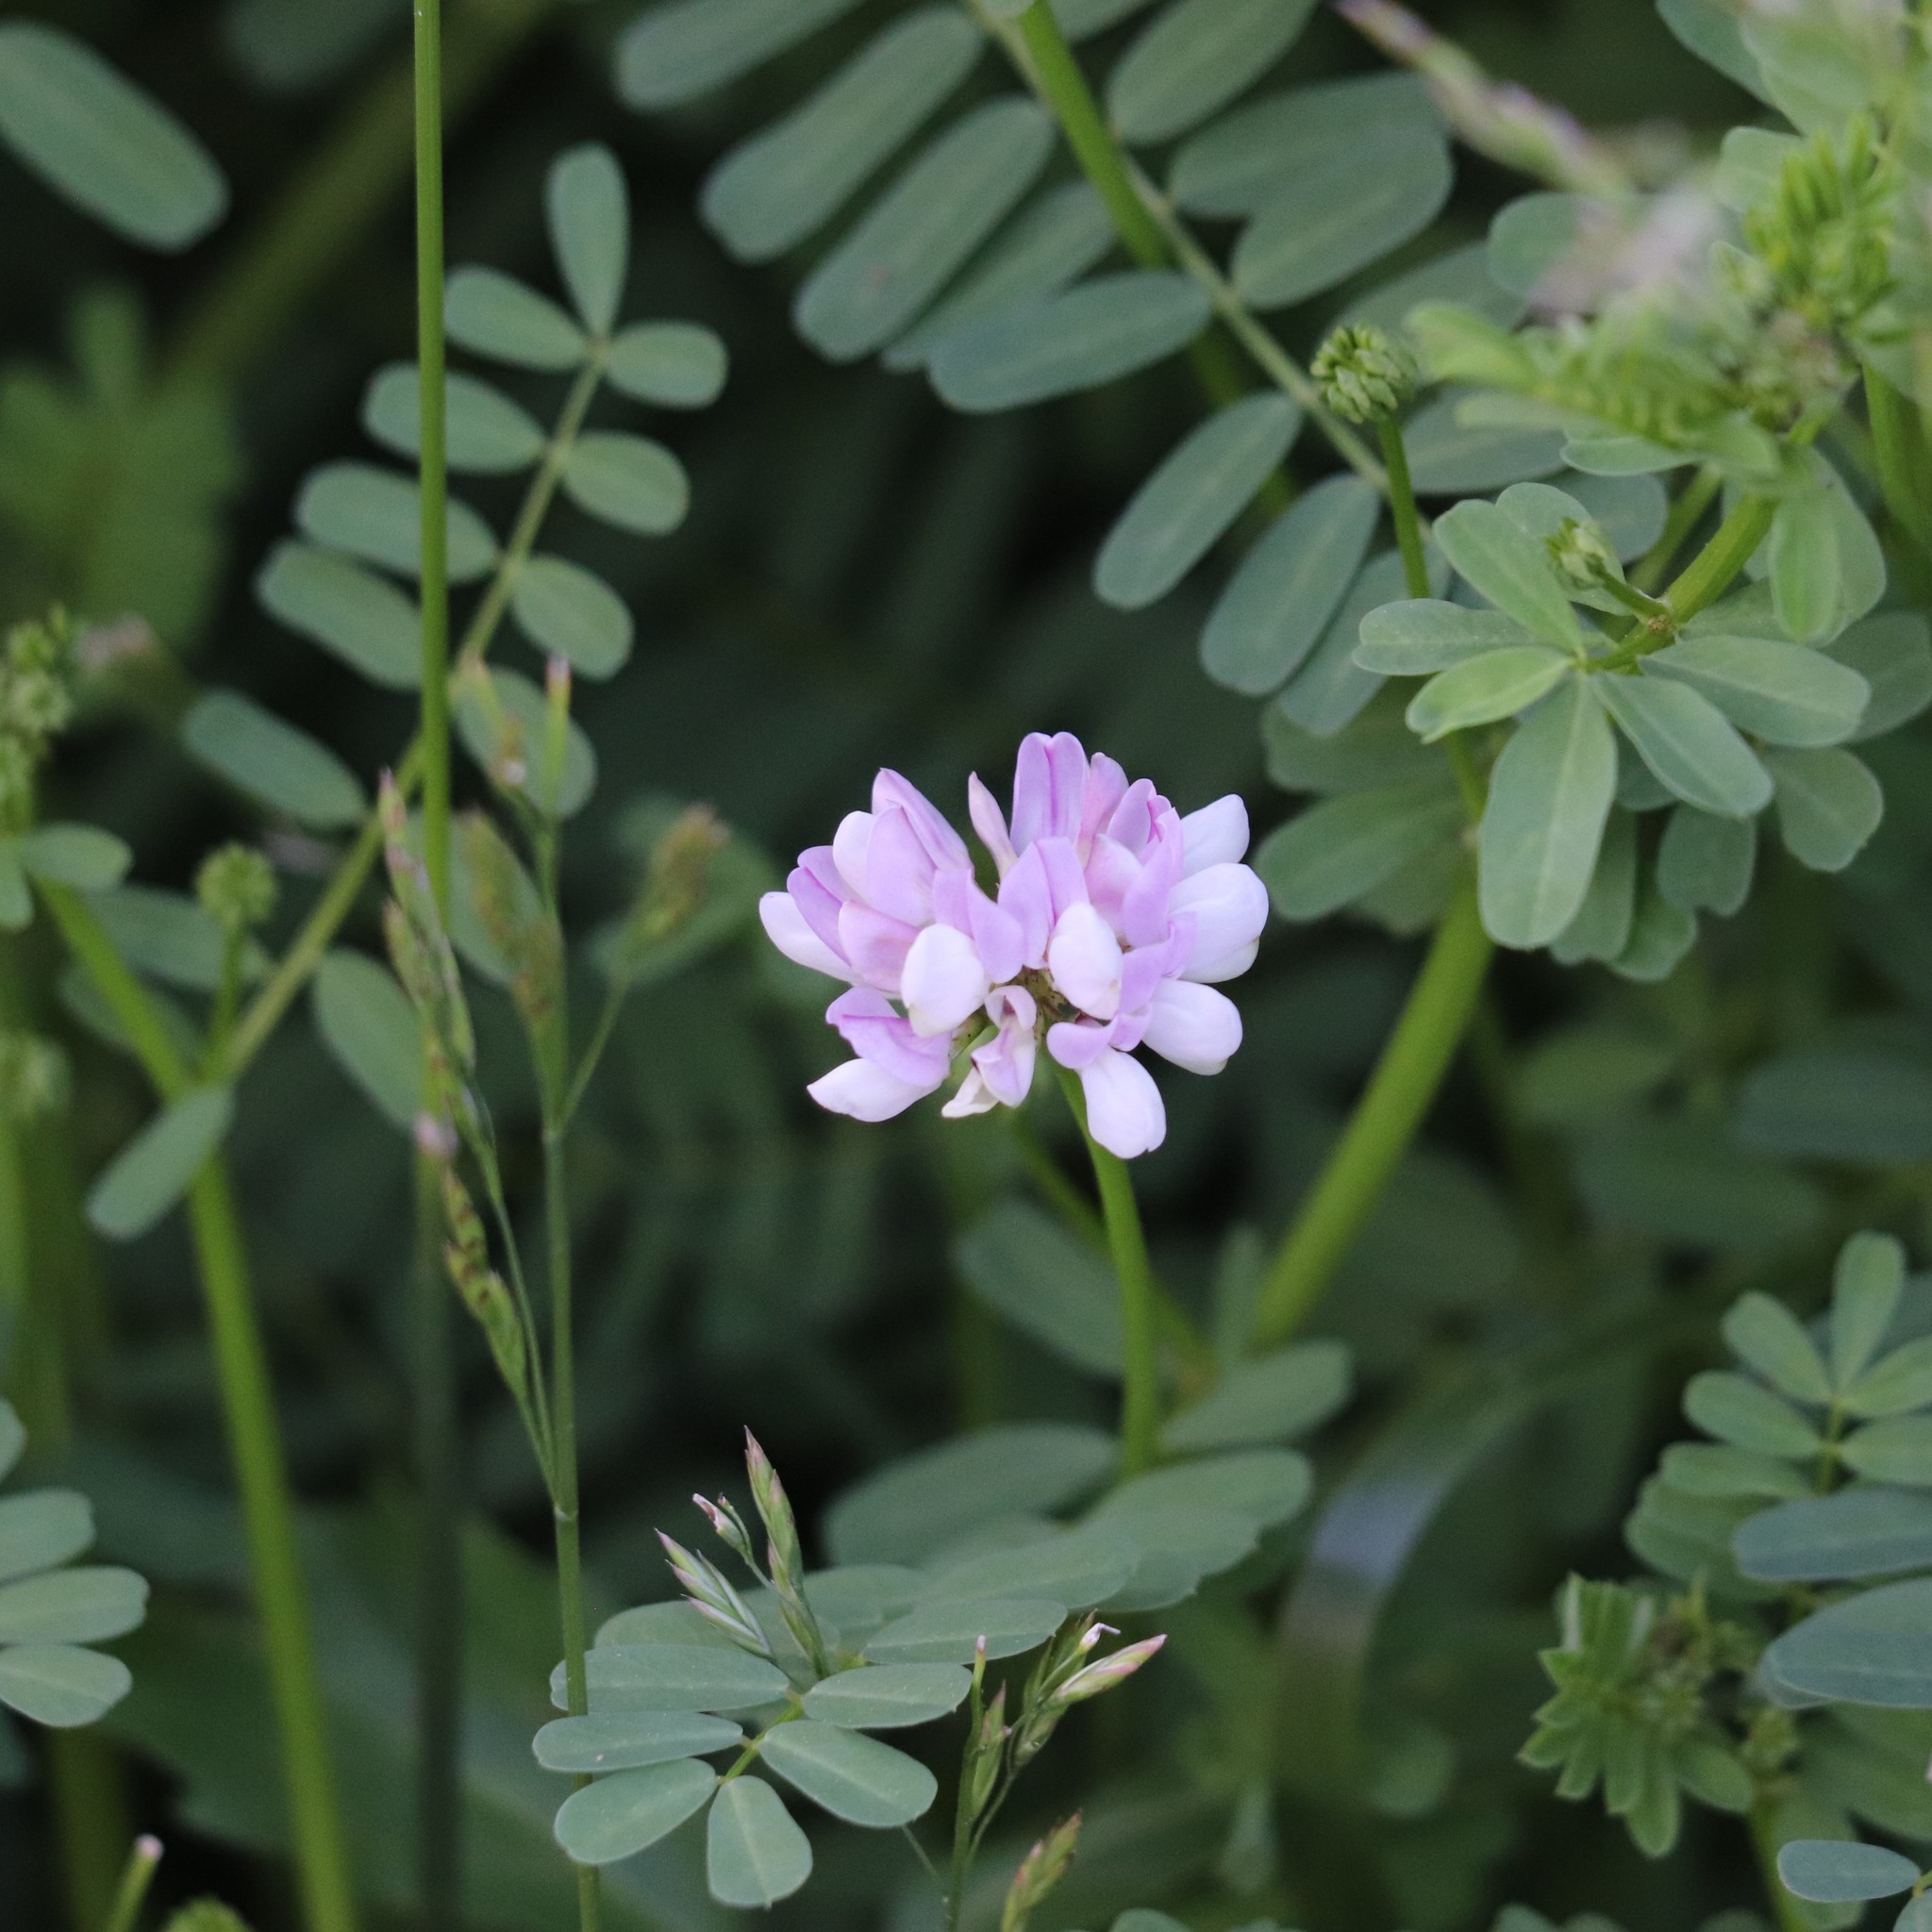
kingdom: Plantae
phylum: Tracheophyta
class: Magnoliopsida
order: Fabales
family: Fabaceae
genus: Coronilla
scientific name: Coronilla varia
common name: Crownvetch
